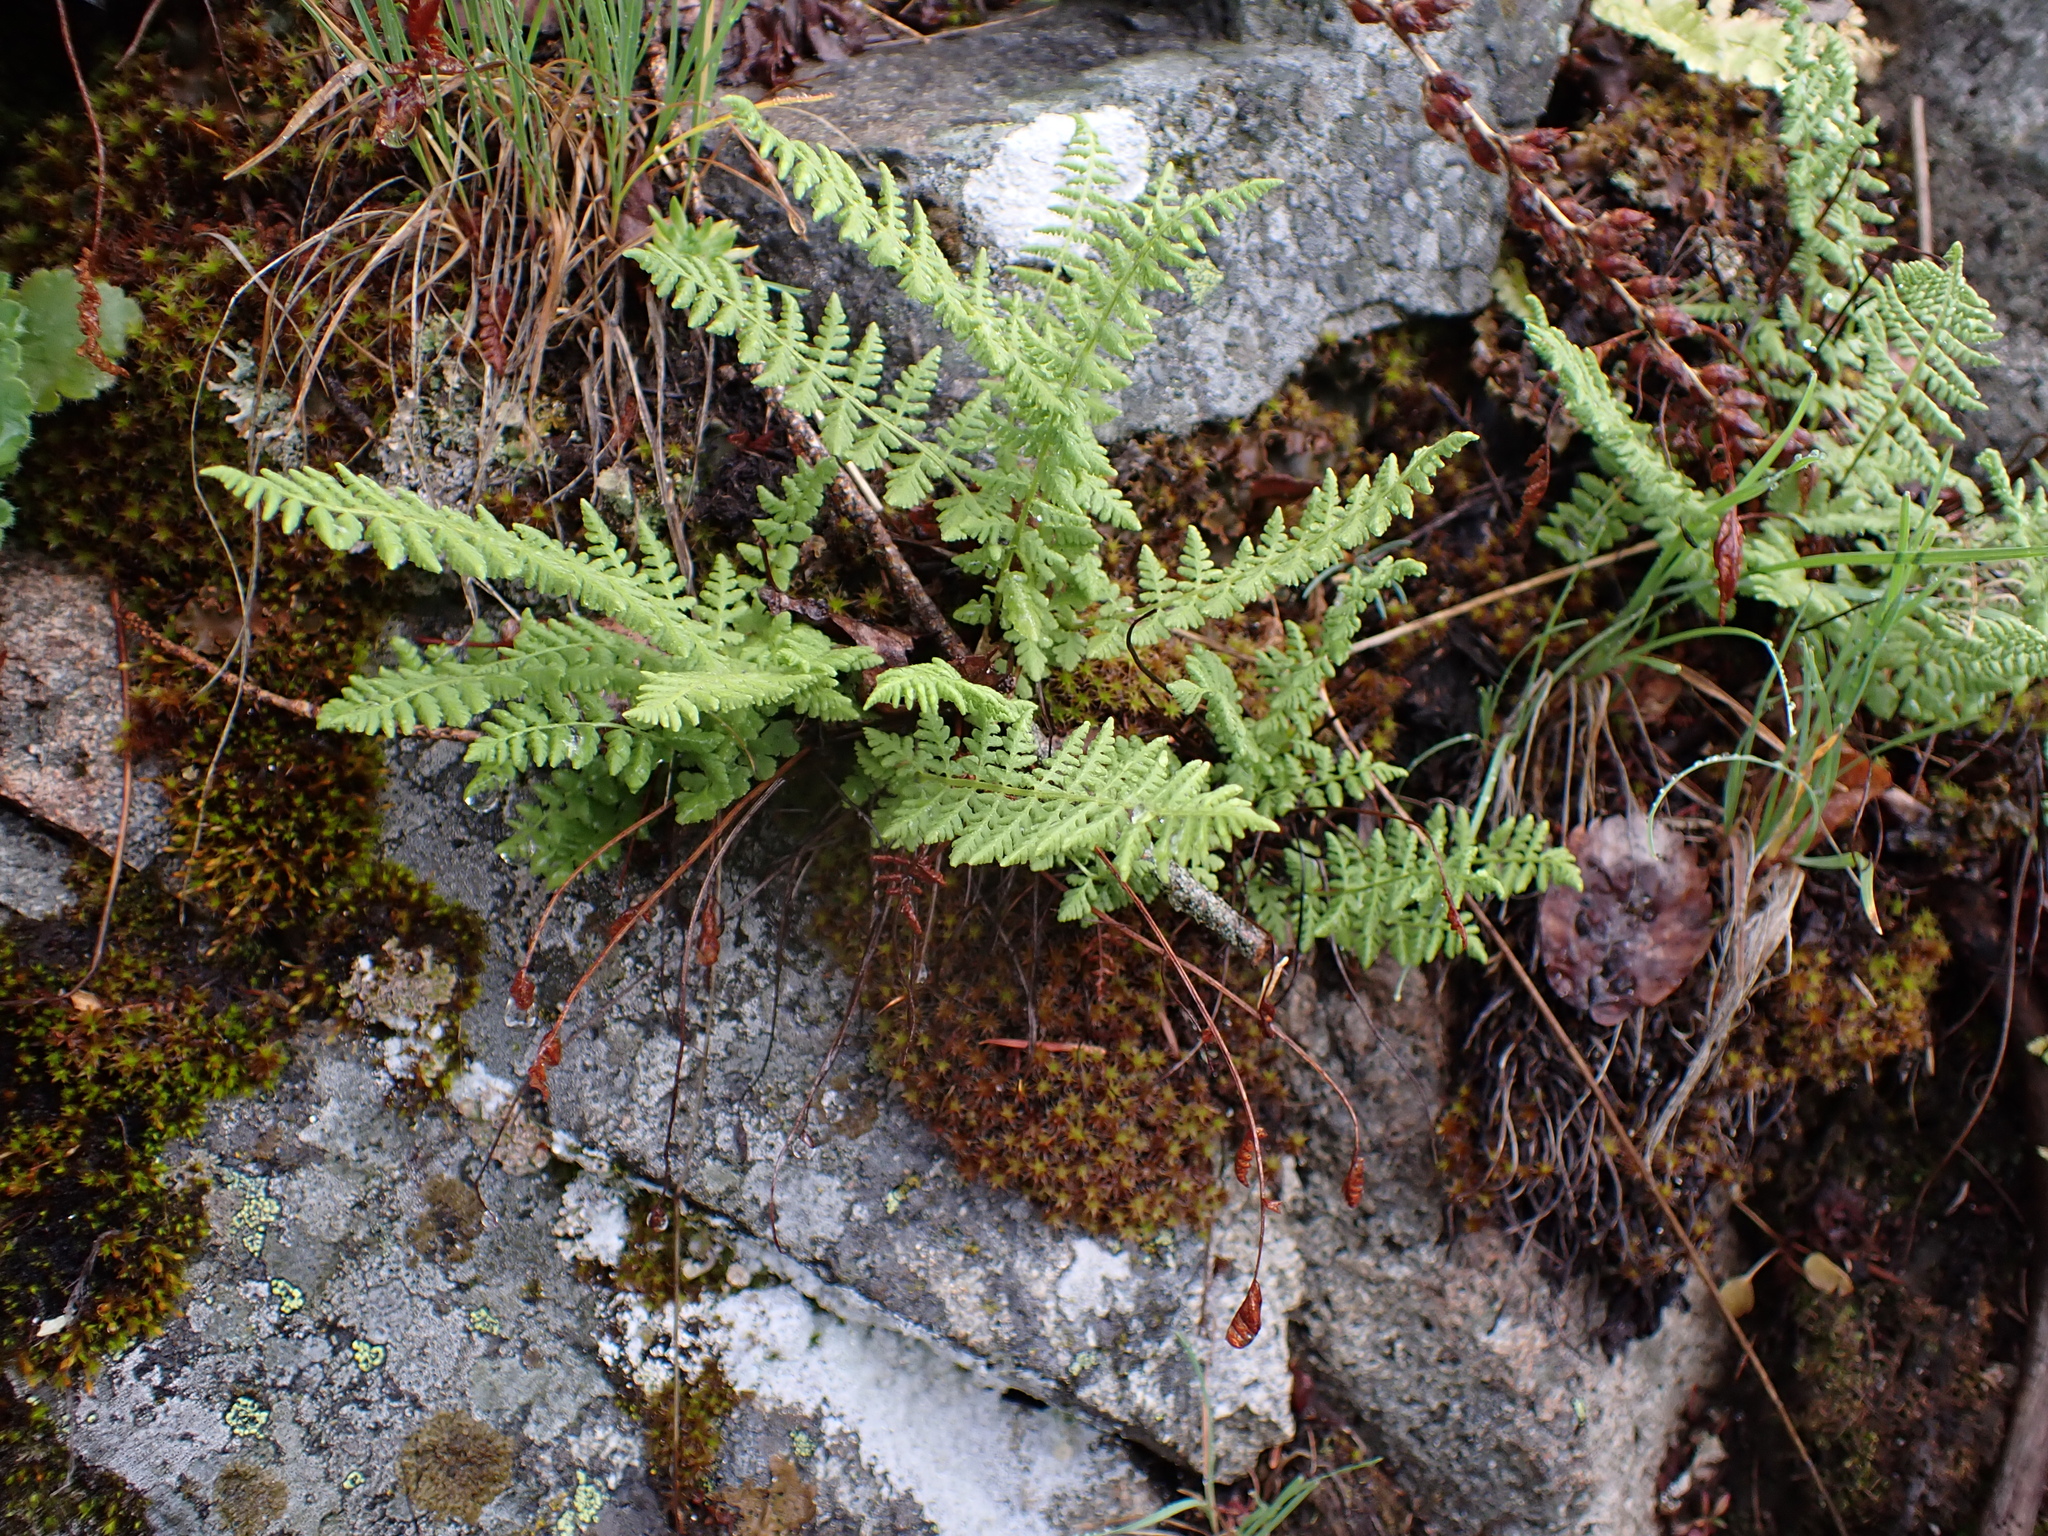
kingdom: Plantae
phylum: Tracheophyta
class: Polypodiopsida
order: Polypodiales
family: Woodsiaceae
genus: Physematium
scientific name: Physematium scopulinum
